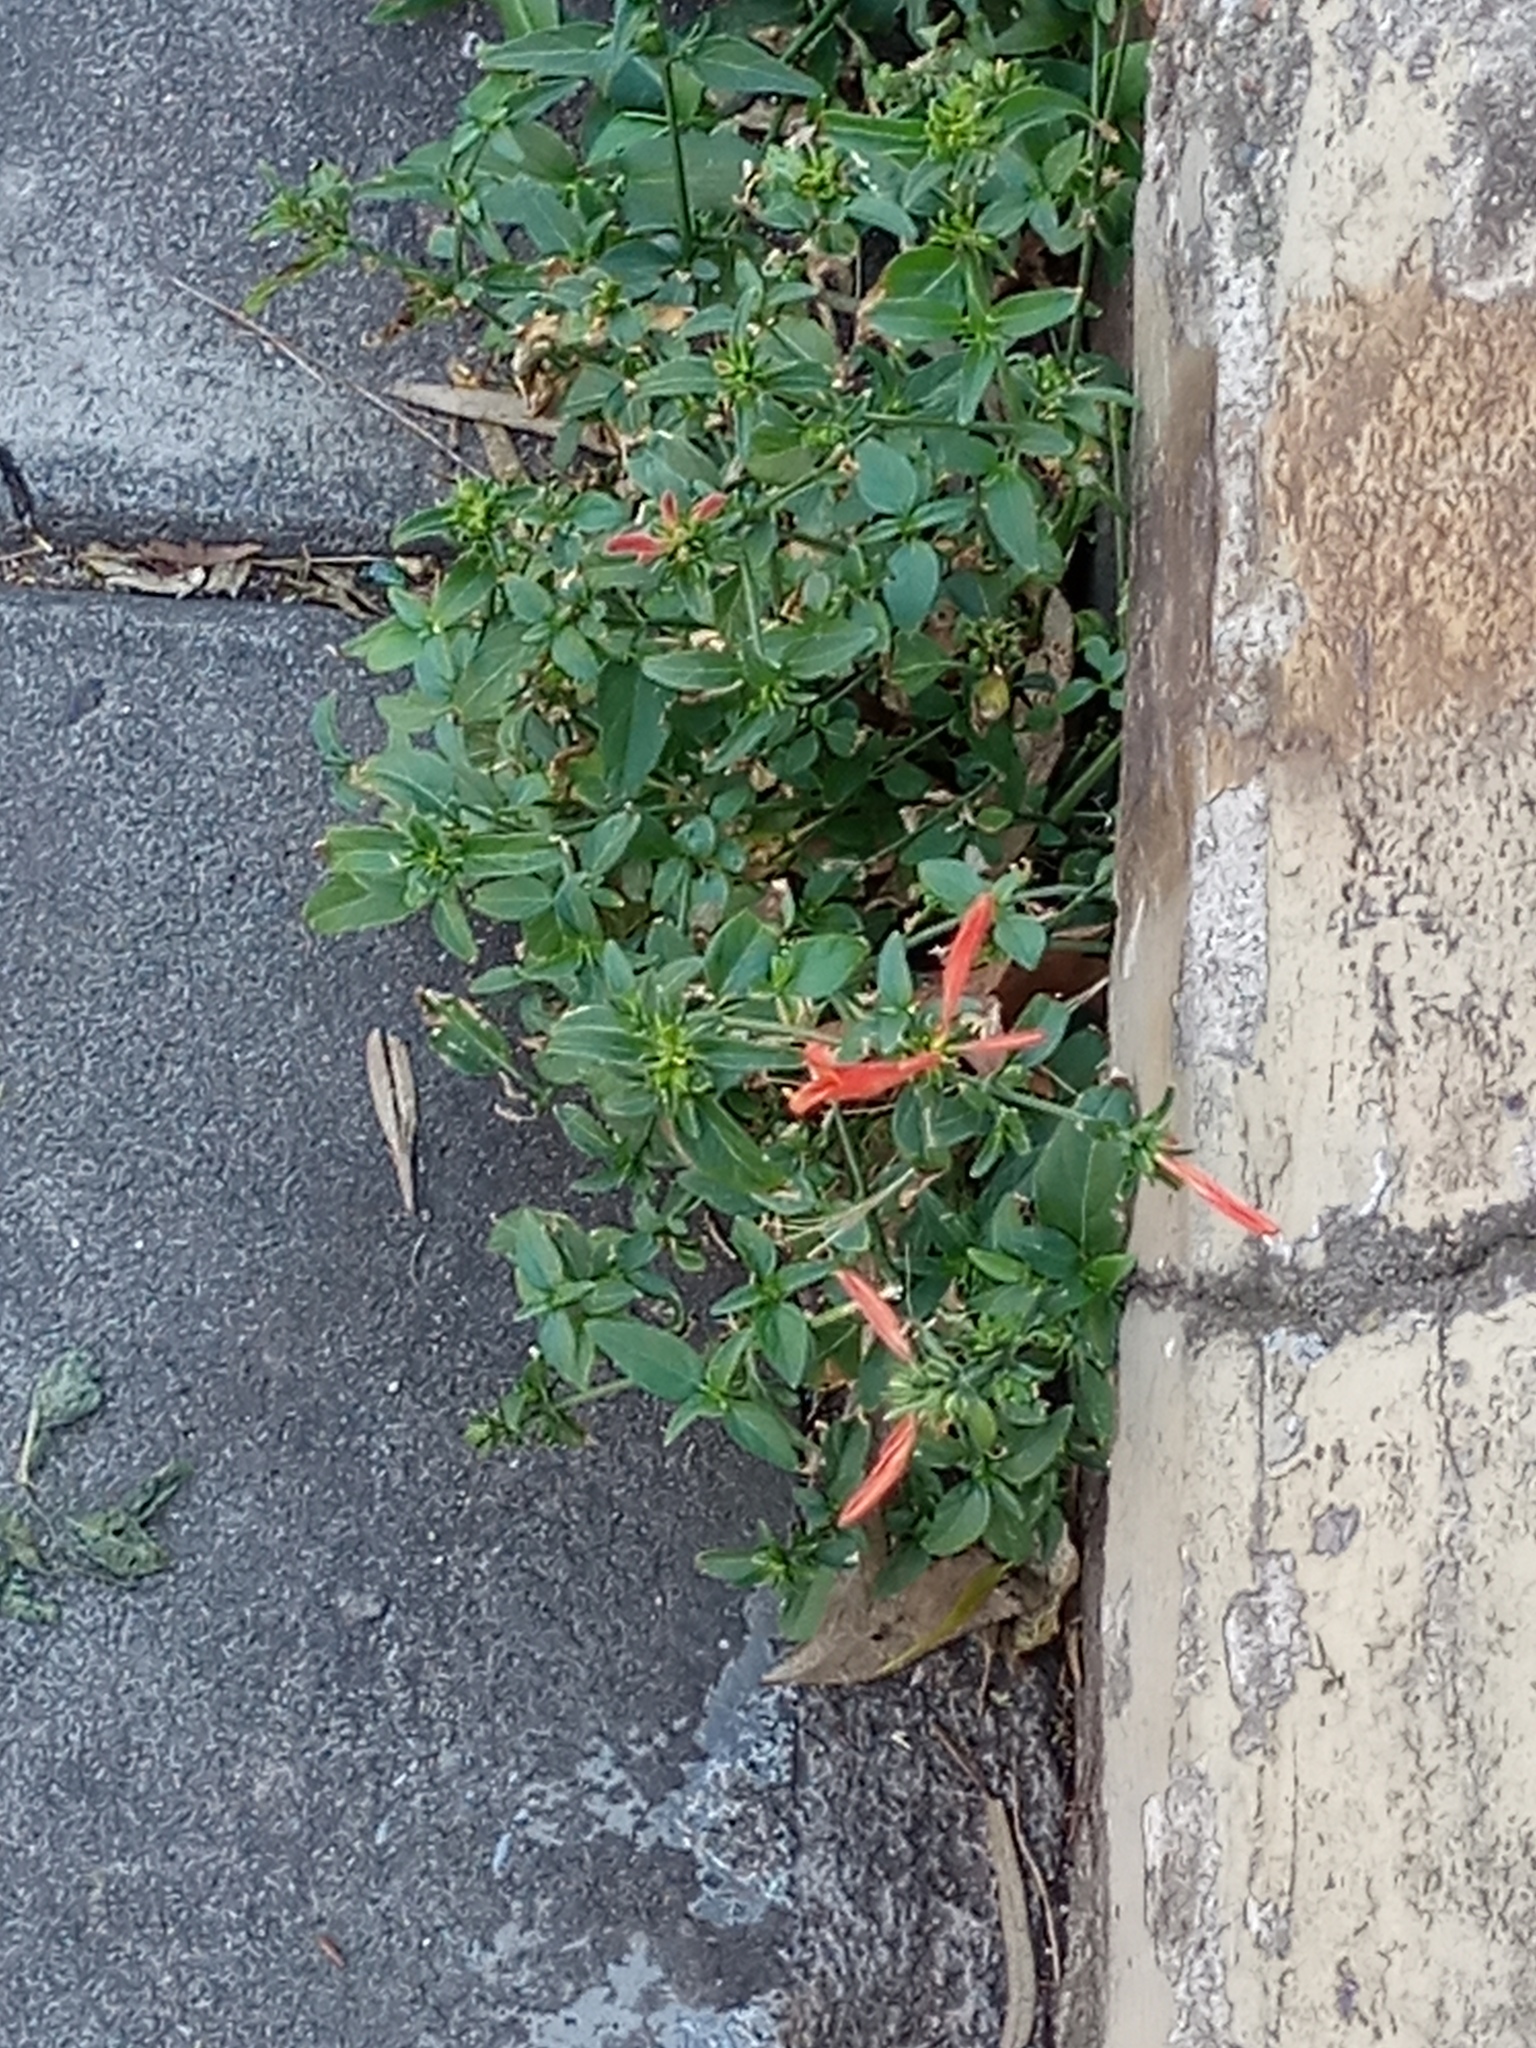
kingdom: Plantae
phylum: Tracheophyta
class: Magnoliopsida
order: Lamiales
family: Acanthaceae
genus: Dicliptera
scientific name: Dicliptera squarrosa
